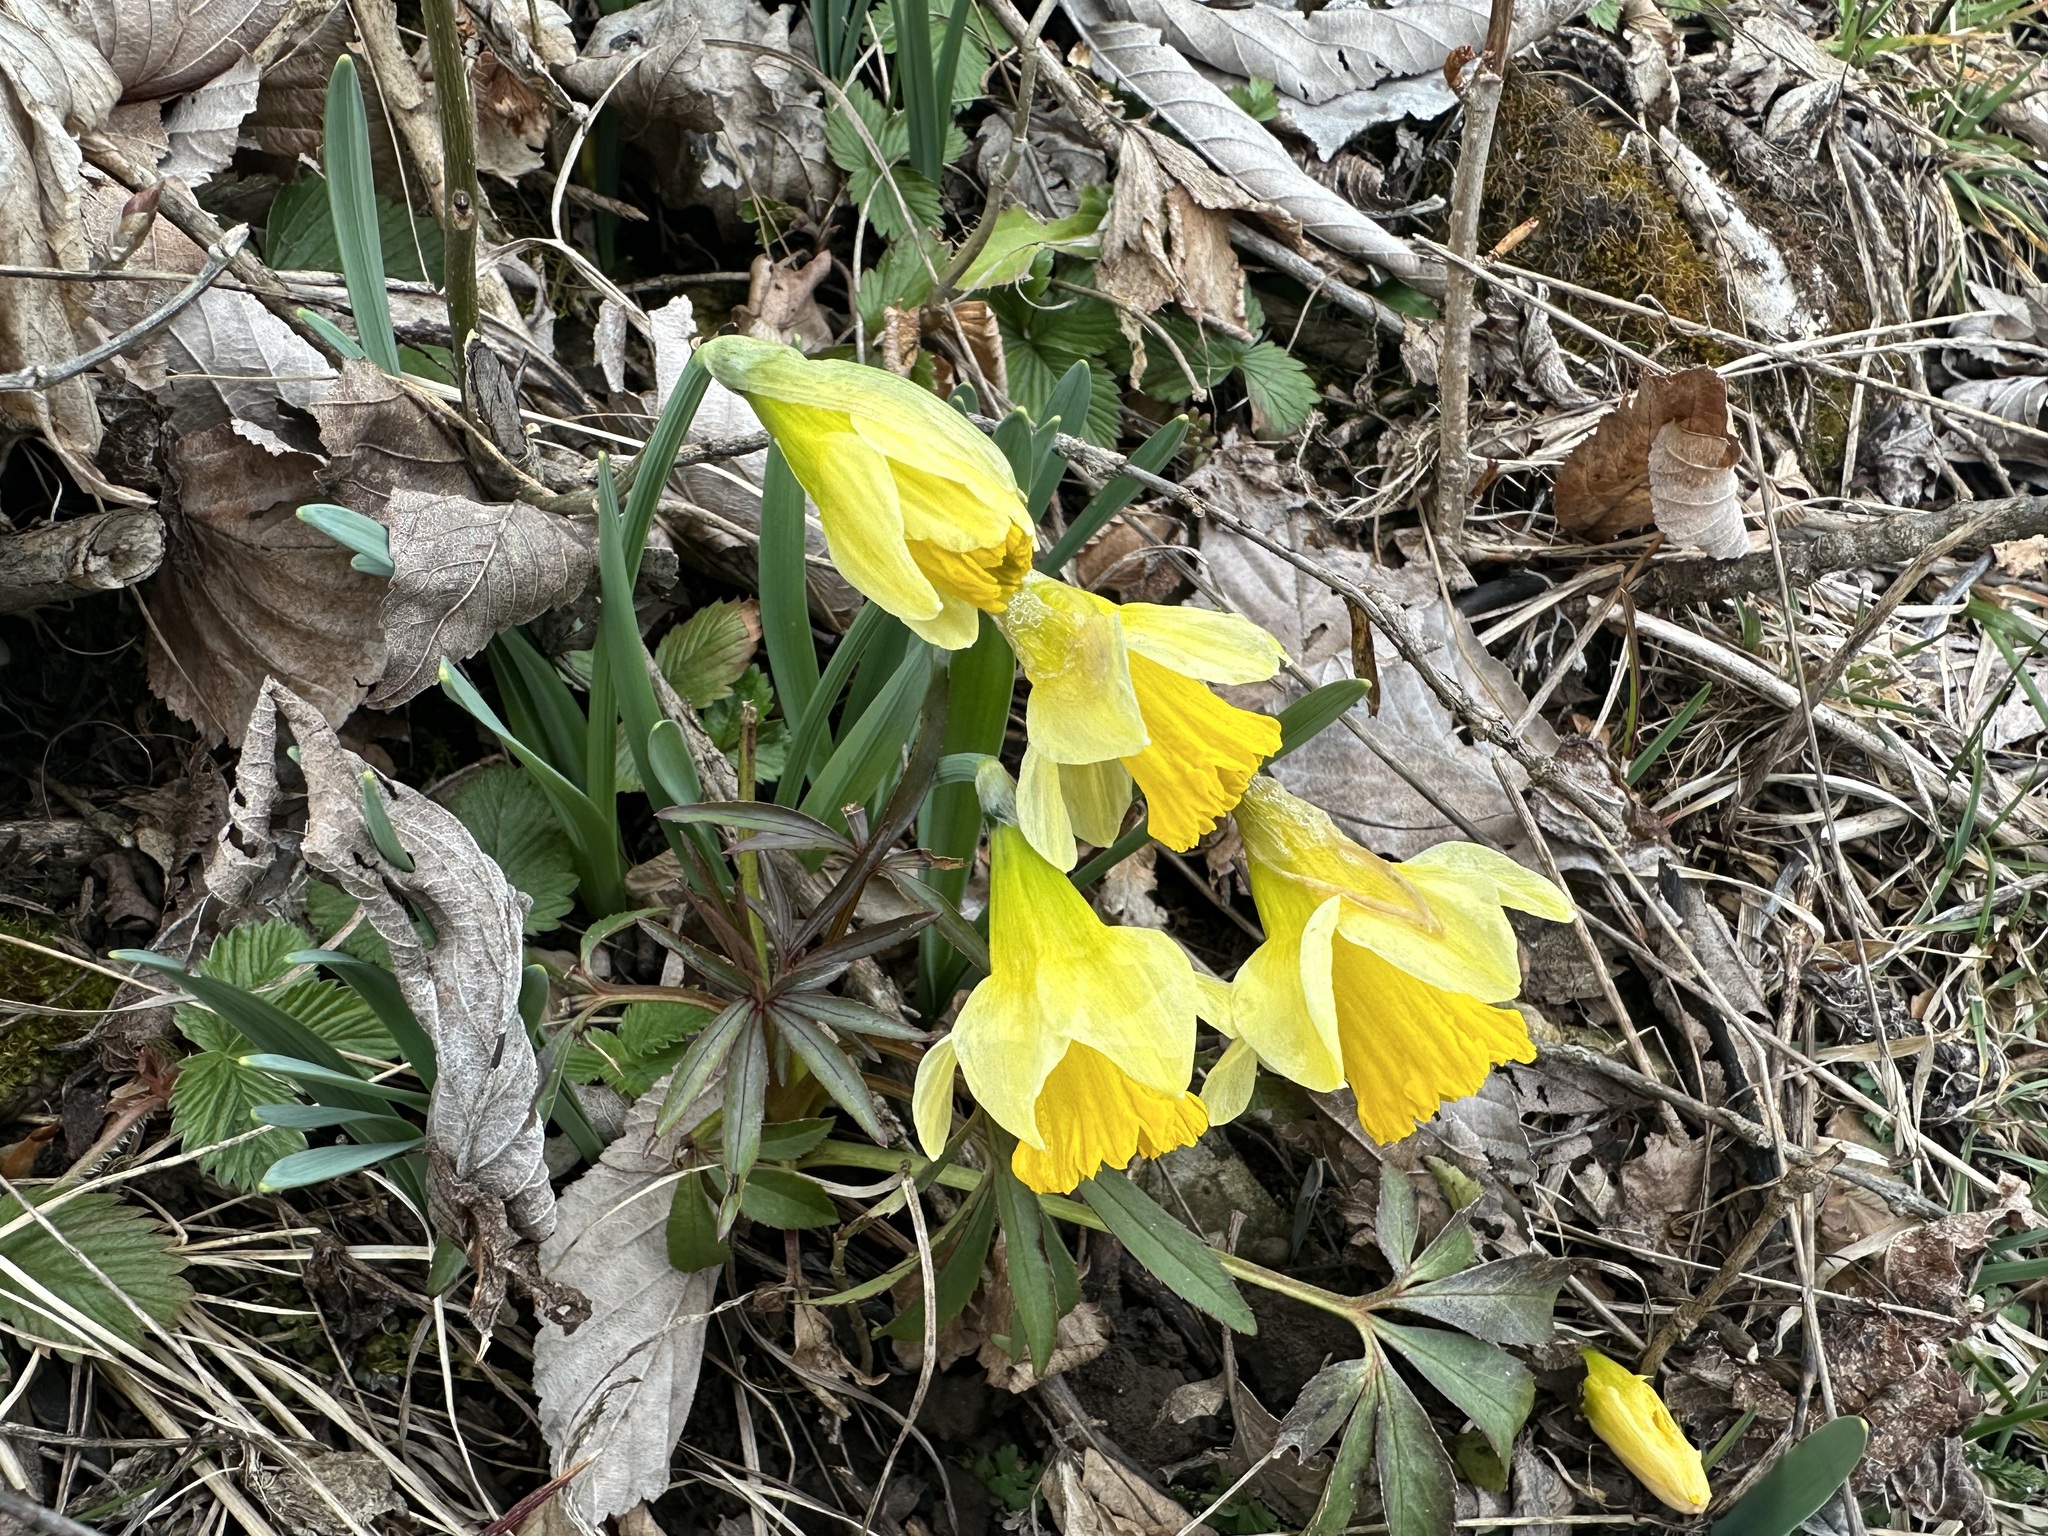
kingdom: Plantae
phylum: Tracheophyta
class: Liliopsida
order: Asparagales
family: Amaryllidaceae
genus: Narcissus
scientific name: Narcissus pseudonarcissus
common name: Daffodil
